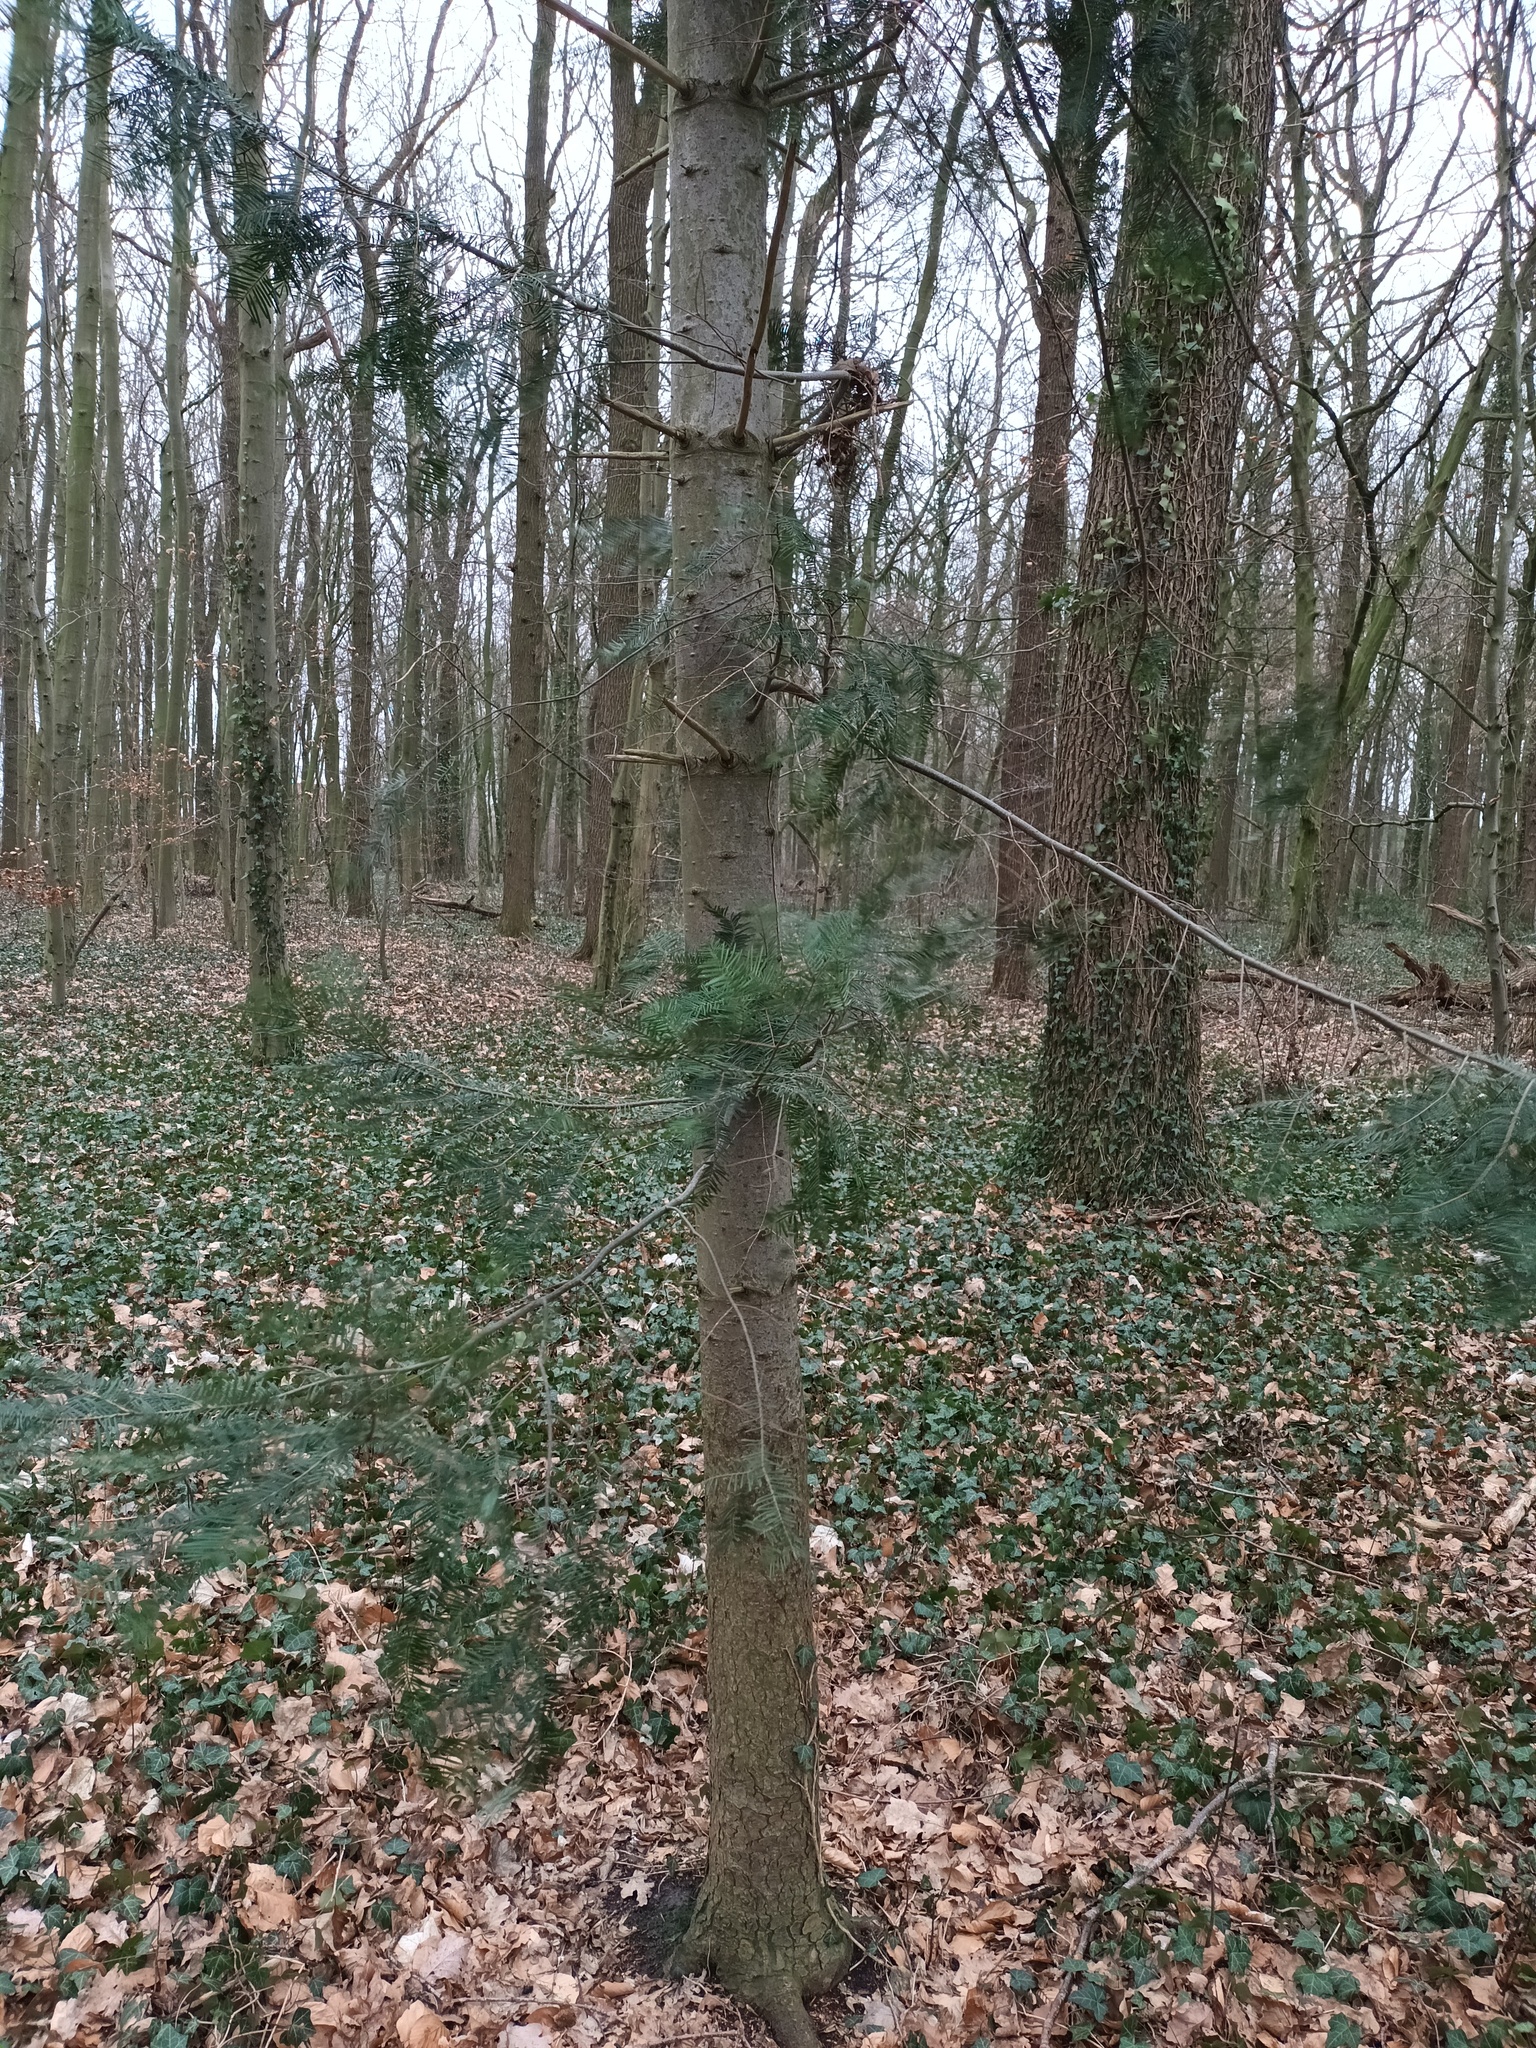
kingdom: Plantae
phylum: Tracheophyta
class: Pinopsida
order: Pinales
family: Pinaceae
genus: Abies
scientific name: Abies grandis
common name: Giant fir
